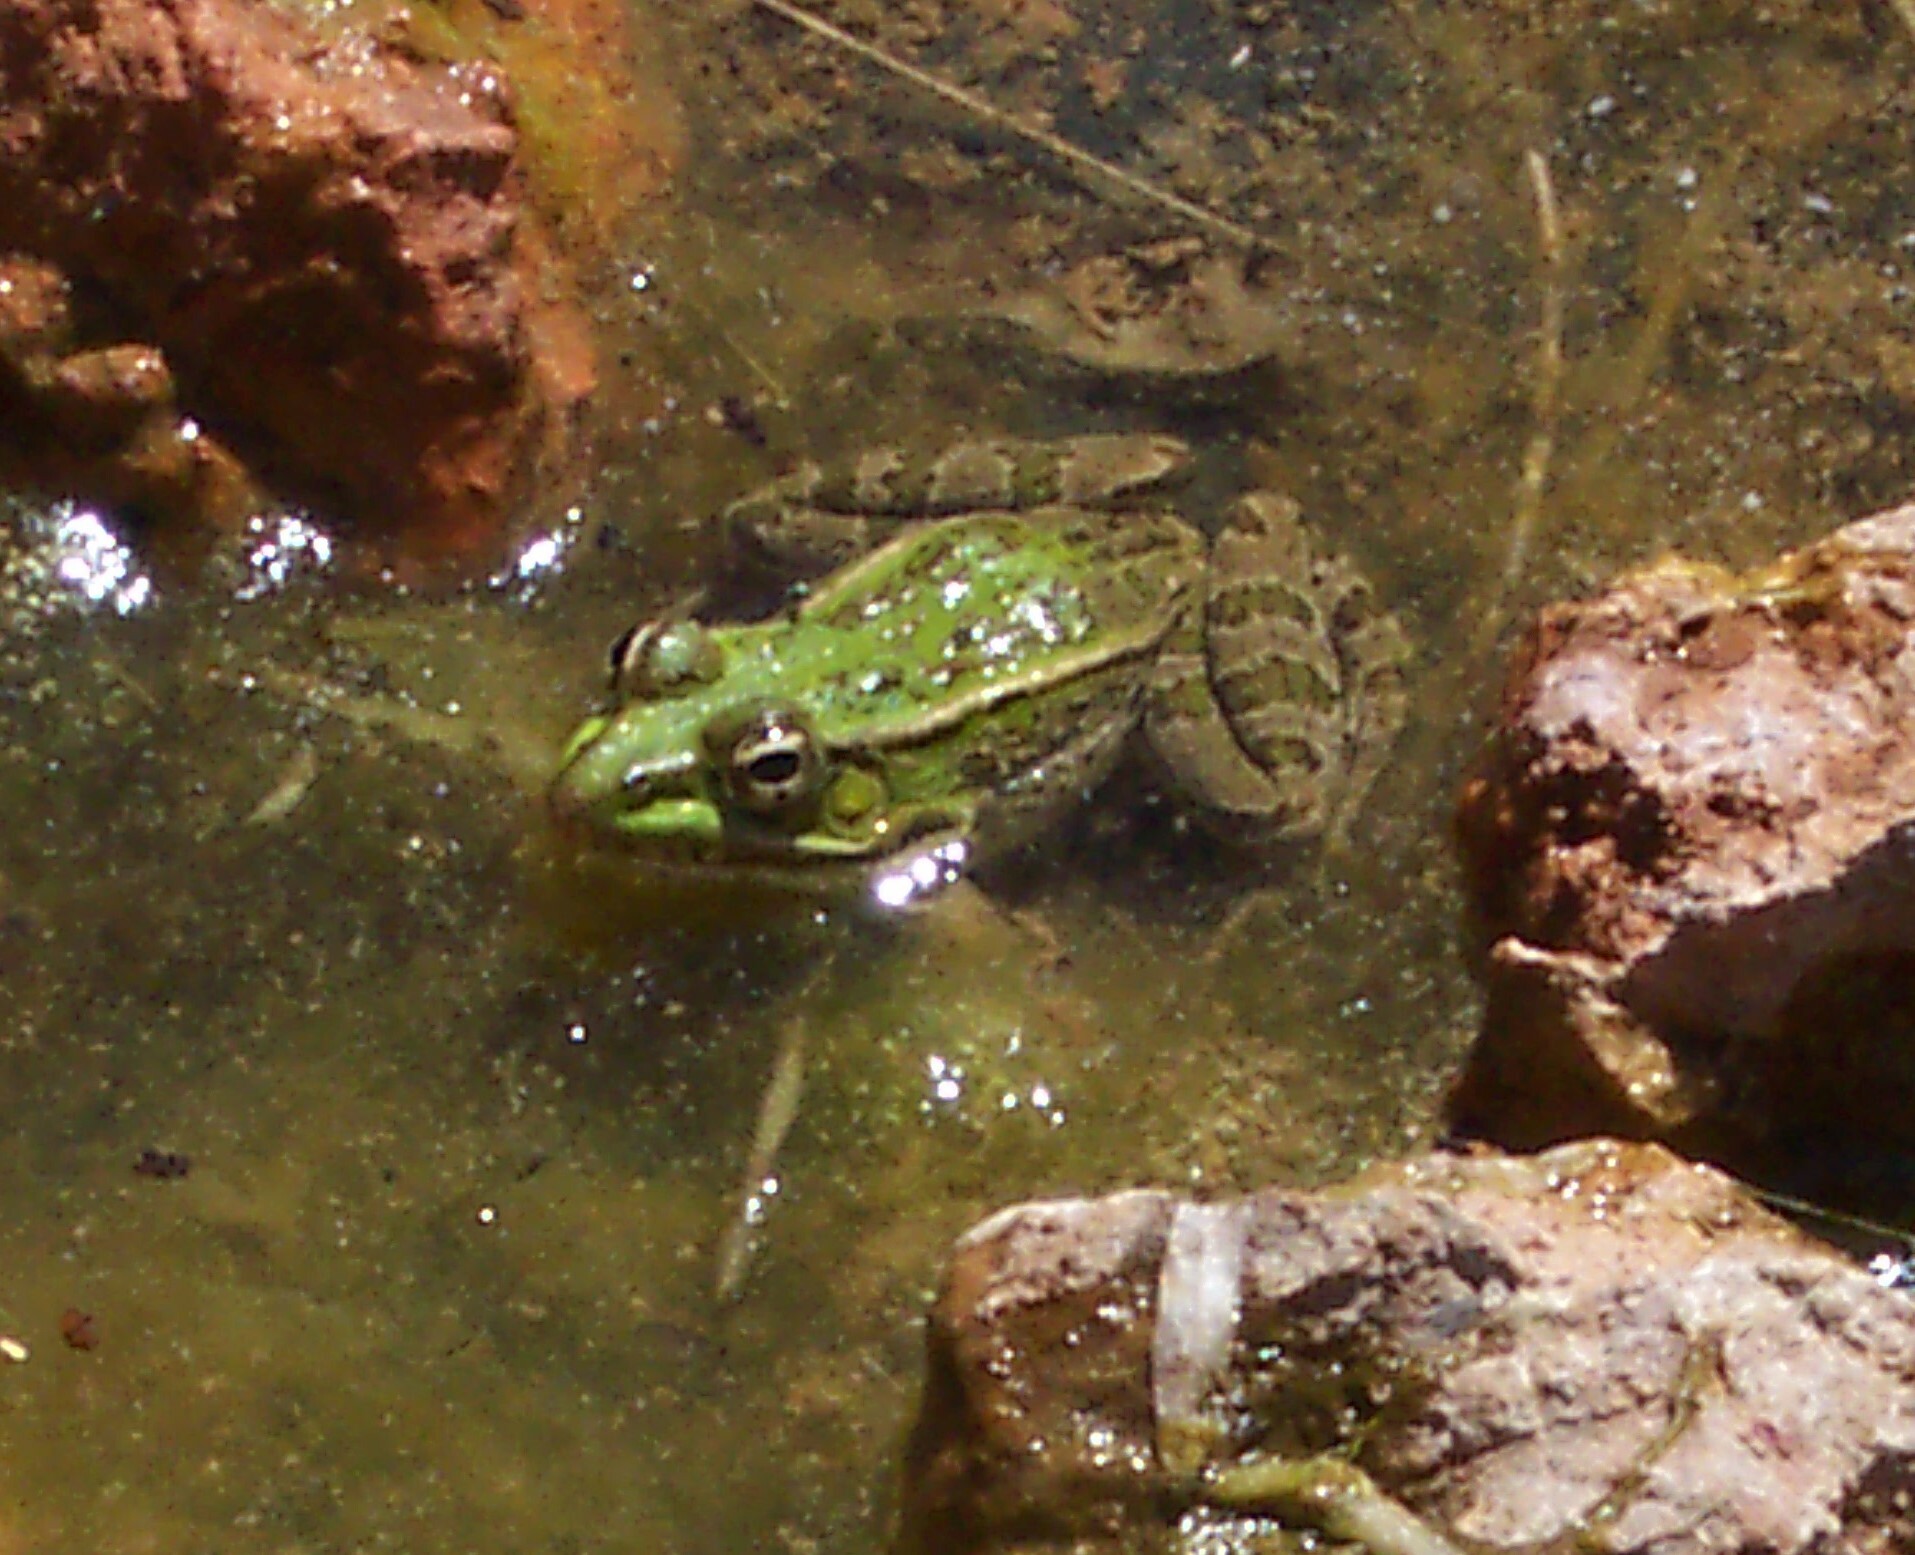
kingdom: Animalia
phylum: Chordata
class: Amphibia
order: Anura
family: Ranidae
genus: Lithobates
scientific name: Lithobates berlandieri
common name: Rio grande leopard frog
